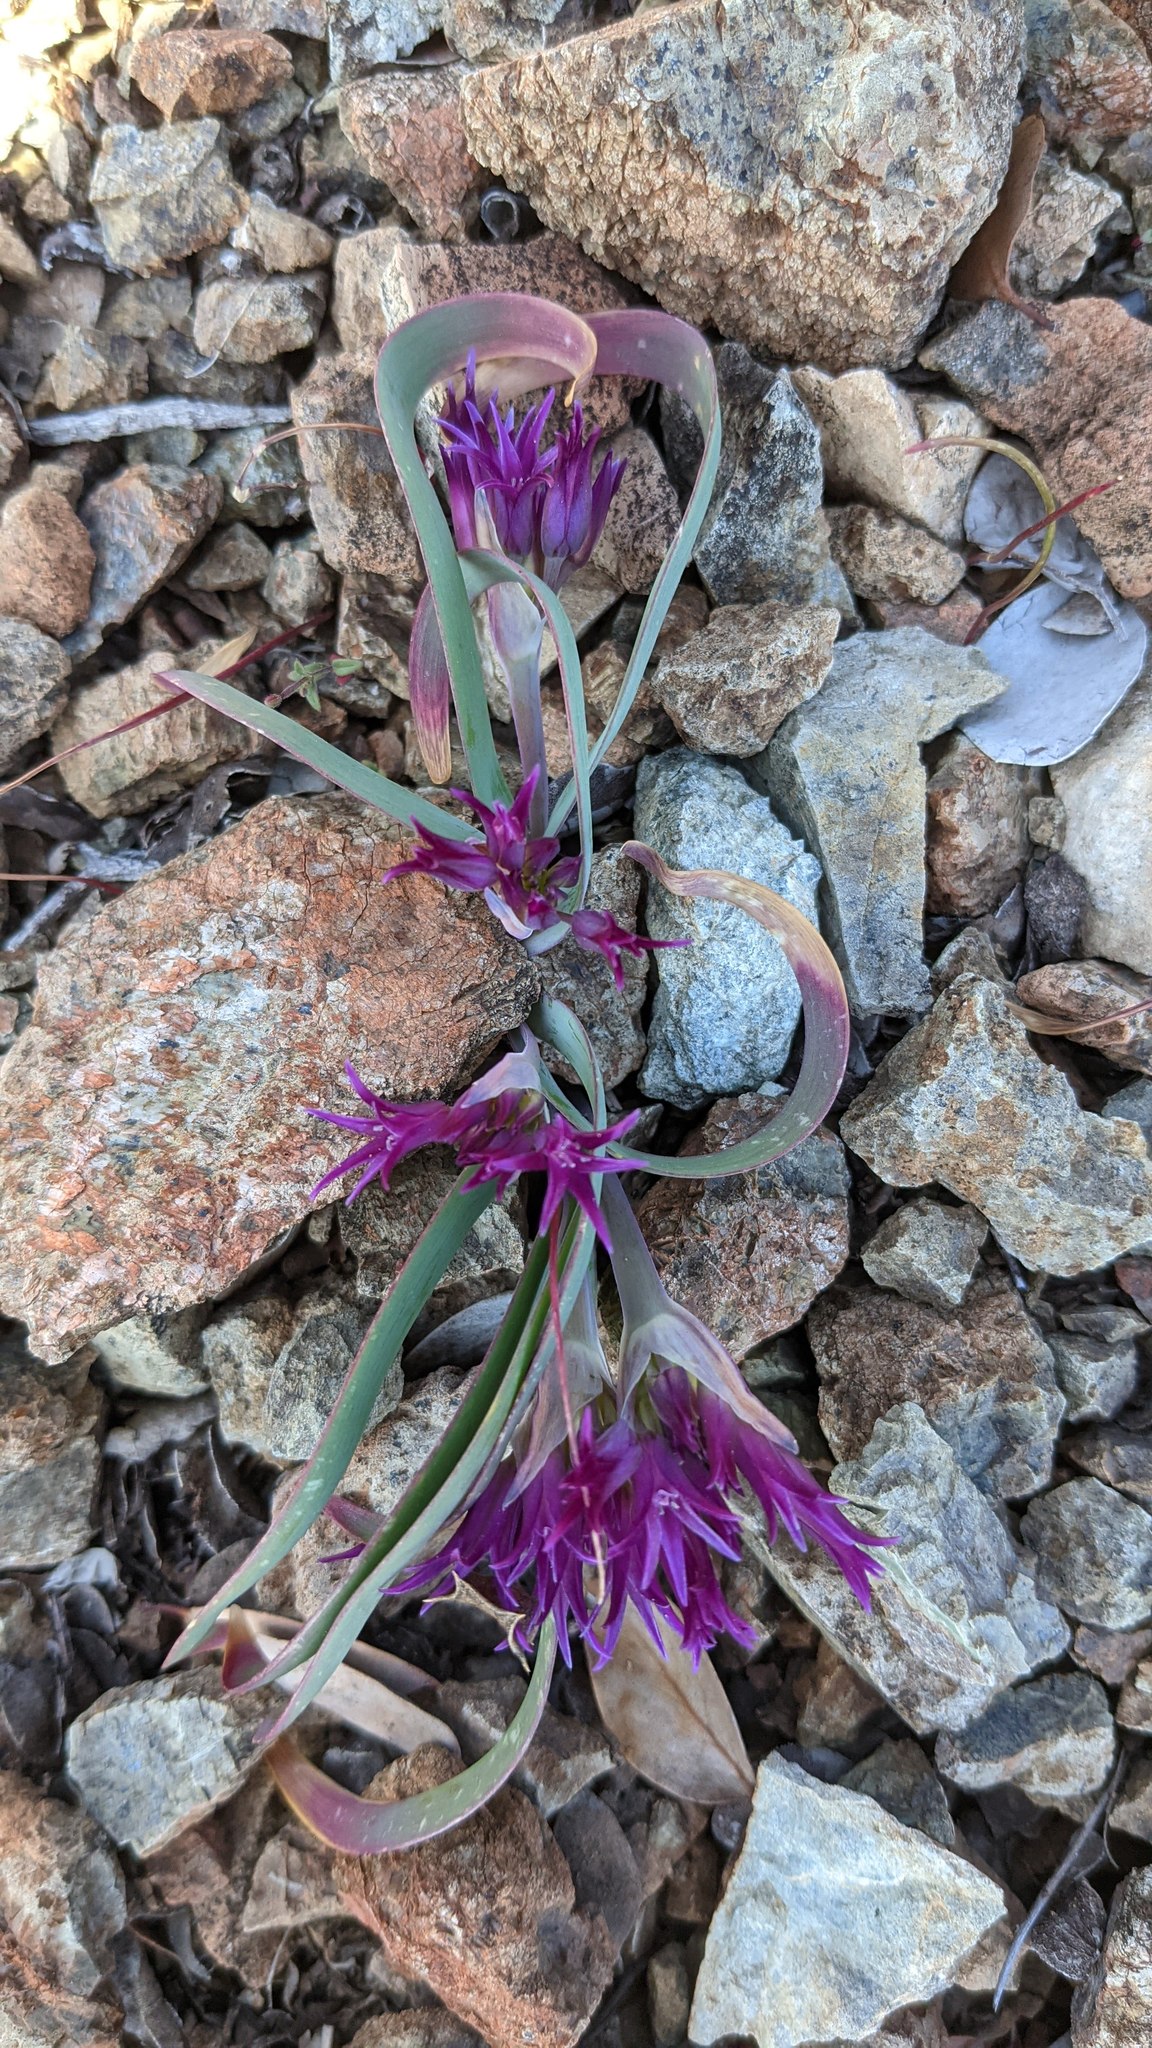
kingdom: Plantae
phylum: Tracheophyta
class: Liliopsida
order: Asparagales
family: Amaryllidaceae
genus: Allium
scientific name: Allium falcifolium
